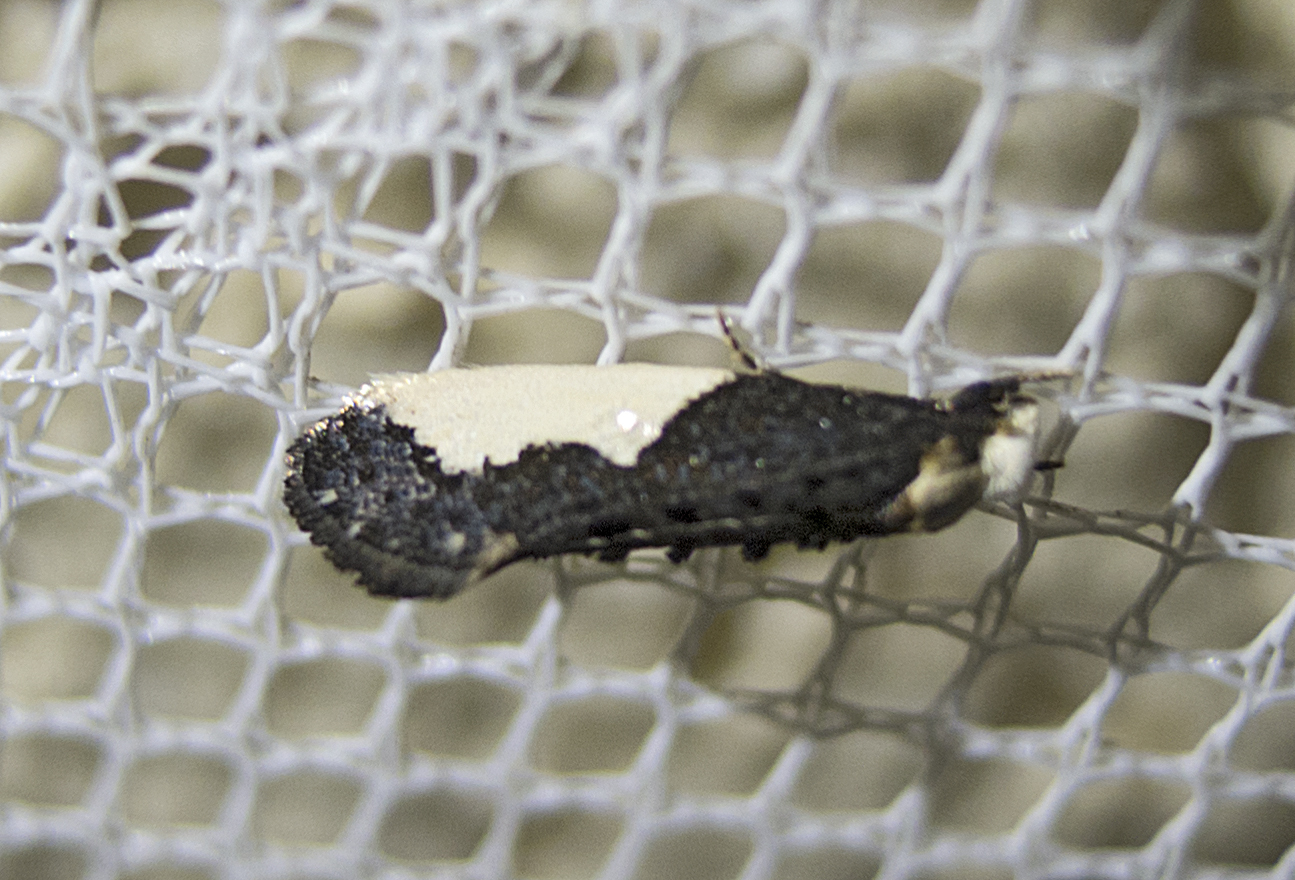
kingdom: Animalia
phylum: Arthropoda
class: Insecta
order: Lepidoptera
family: Tineidae
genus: Monopis
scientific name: Monopis monachella
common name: Moth
